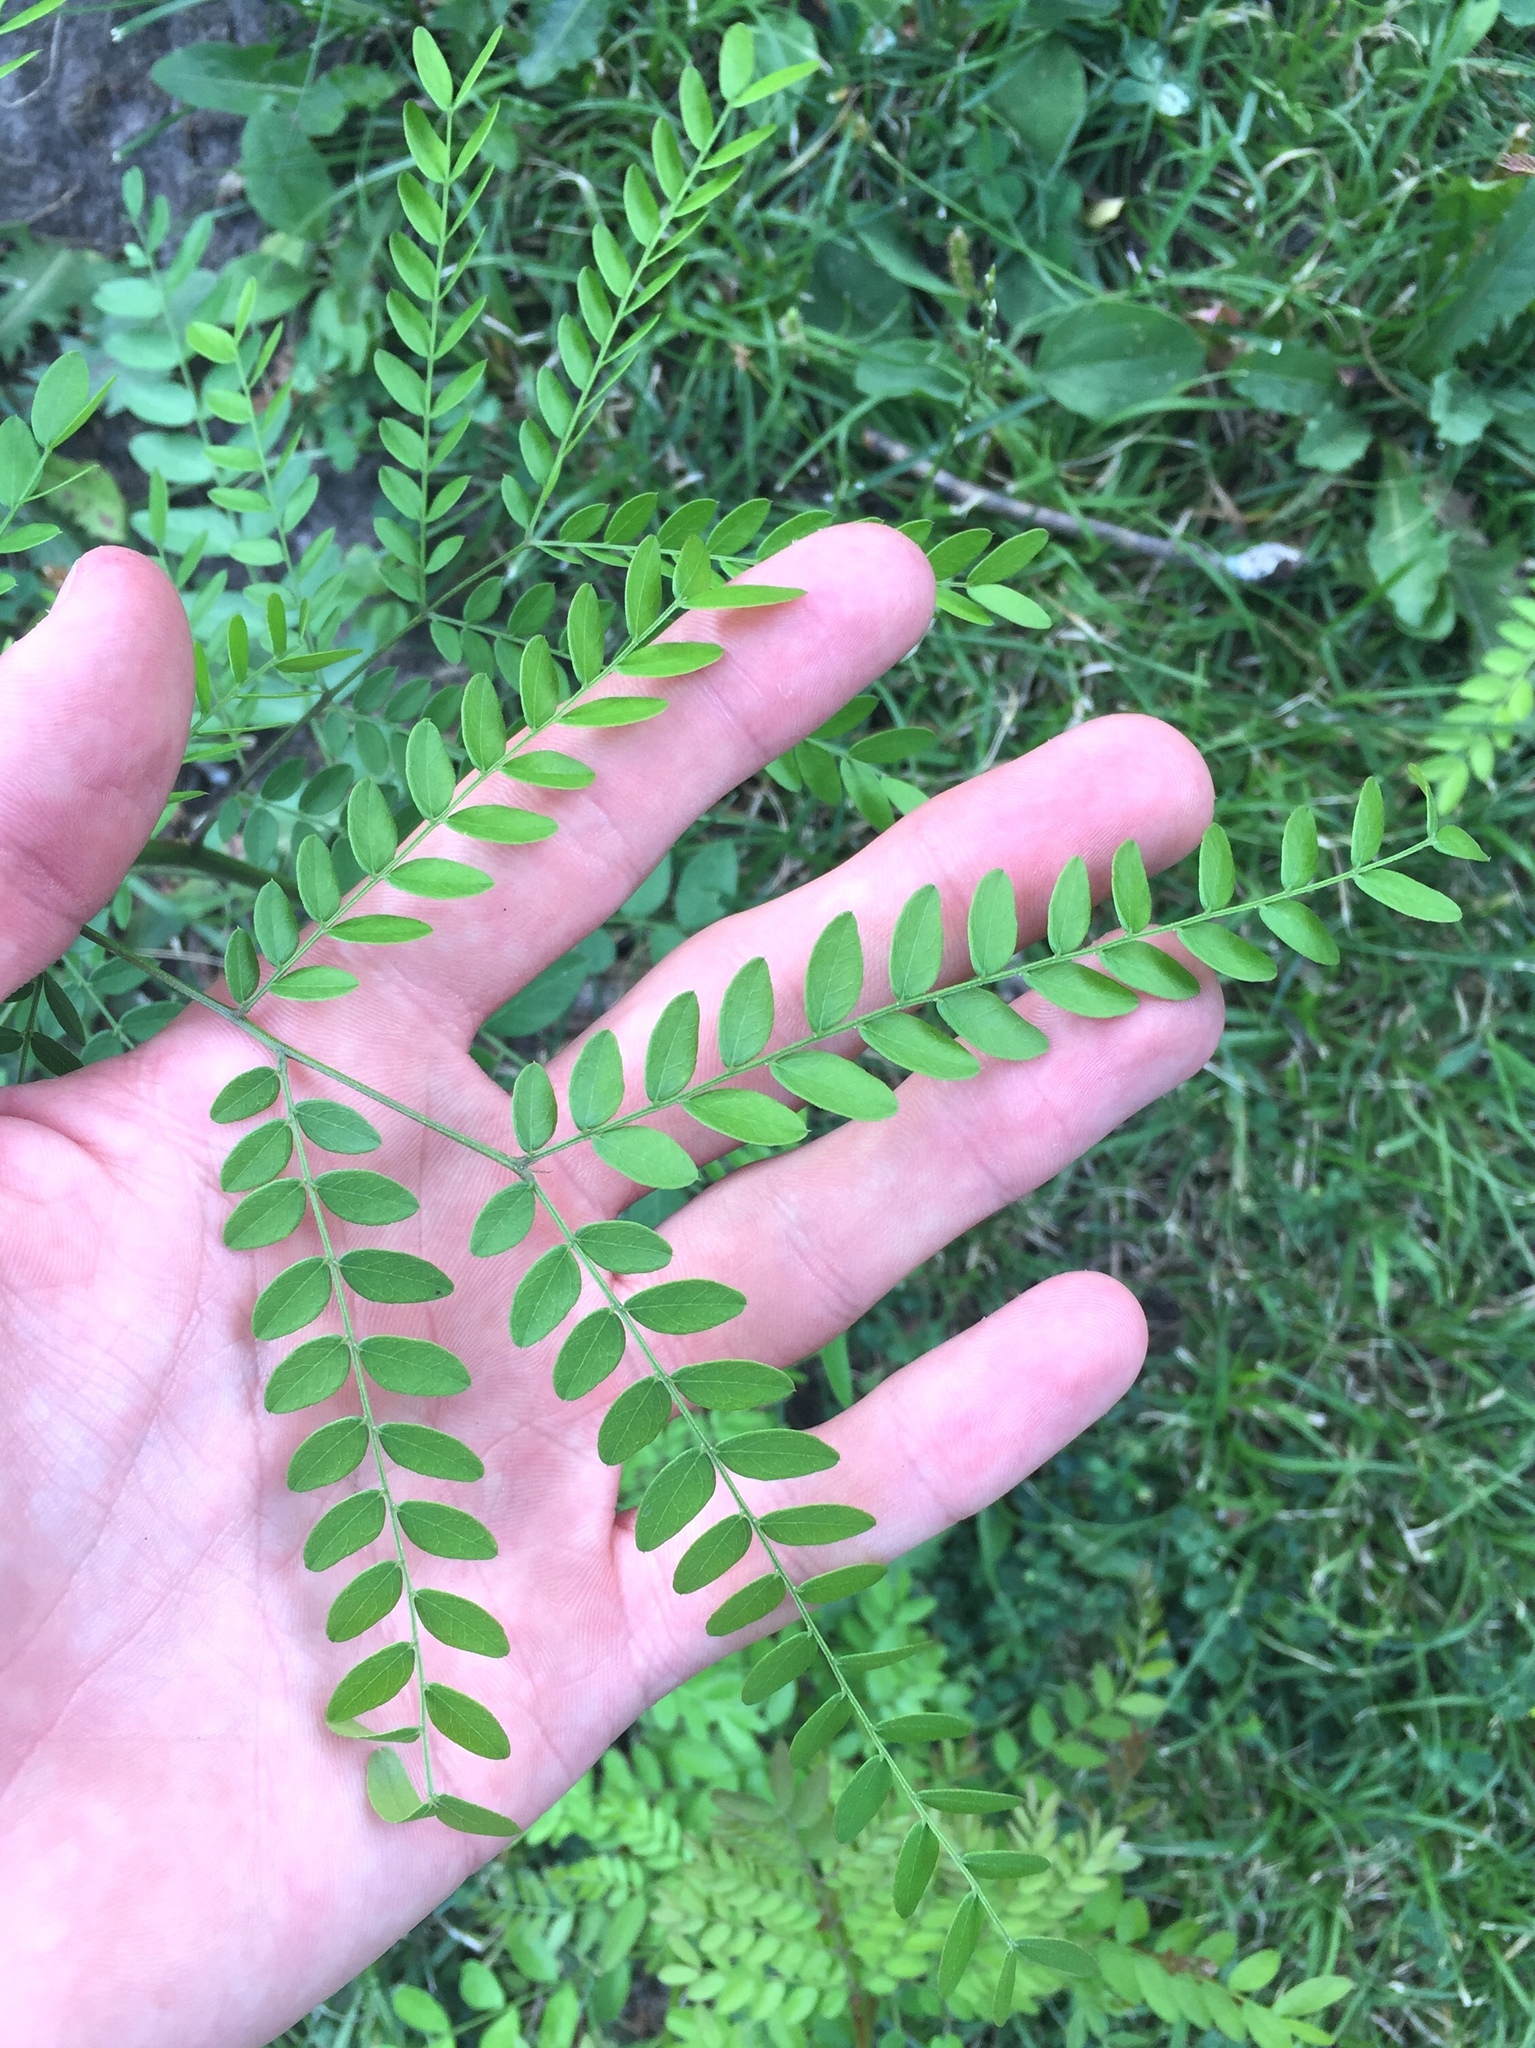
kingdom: Plantae
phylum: Tracheophyta
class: Magnoliopsida
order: Fabales
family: Fabaceae
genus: Gleditsia
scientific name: Gleditsia triacanthos
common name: Common honeylocust
